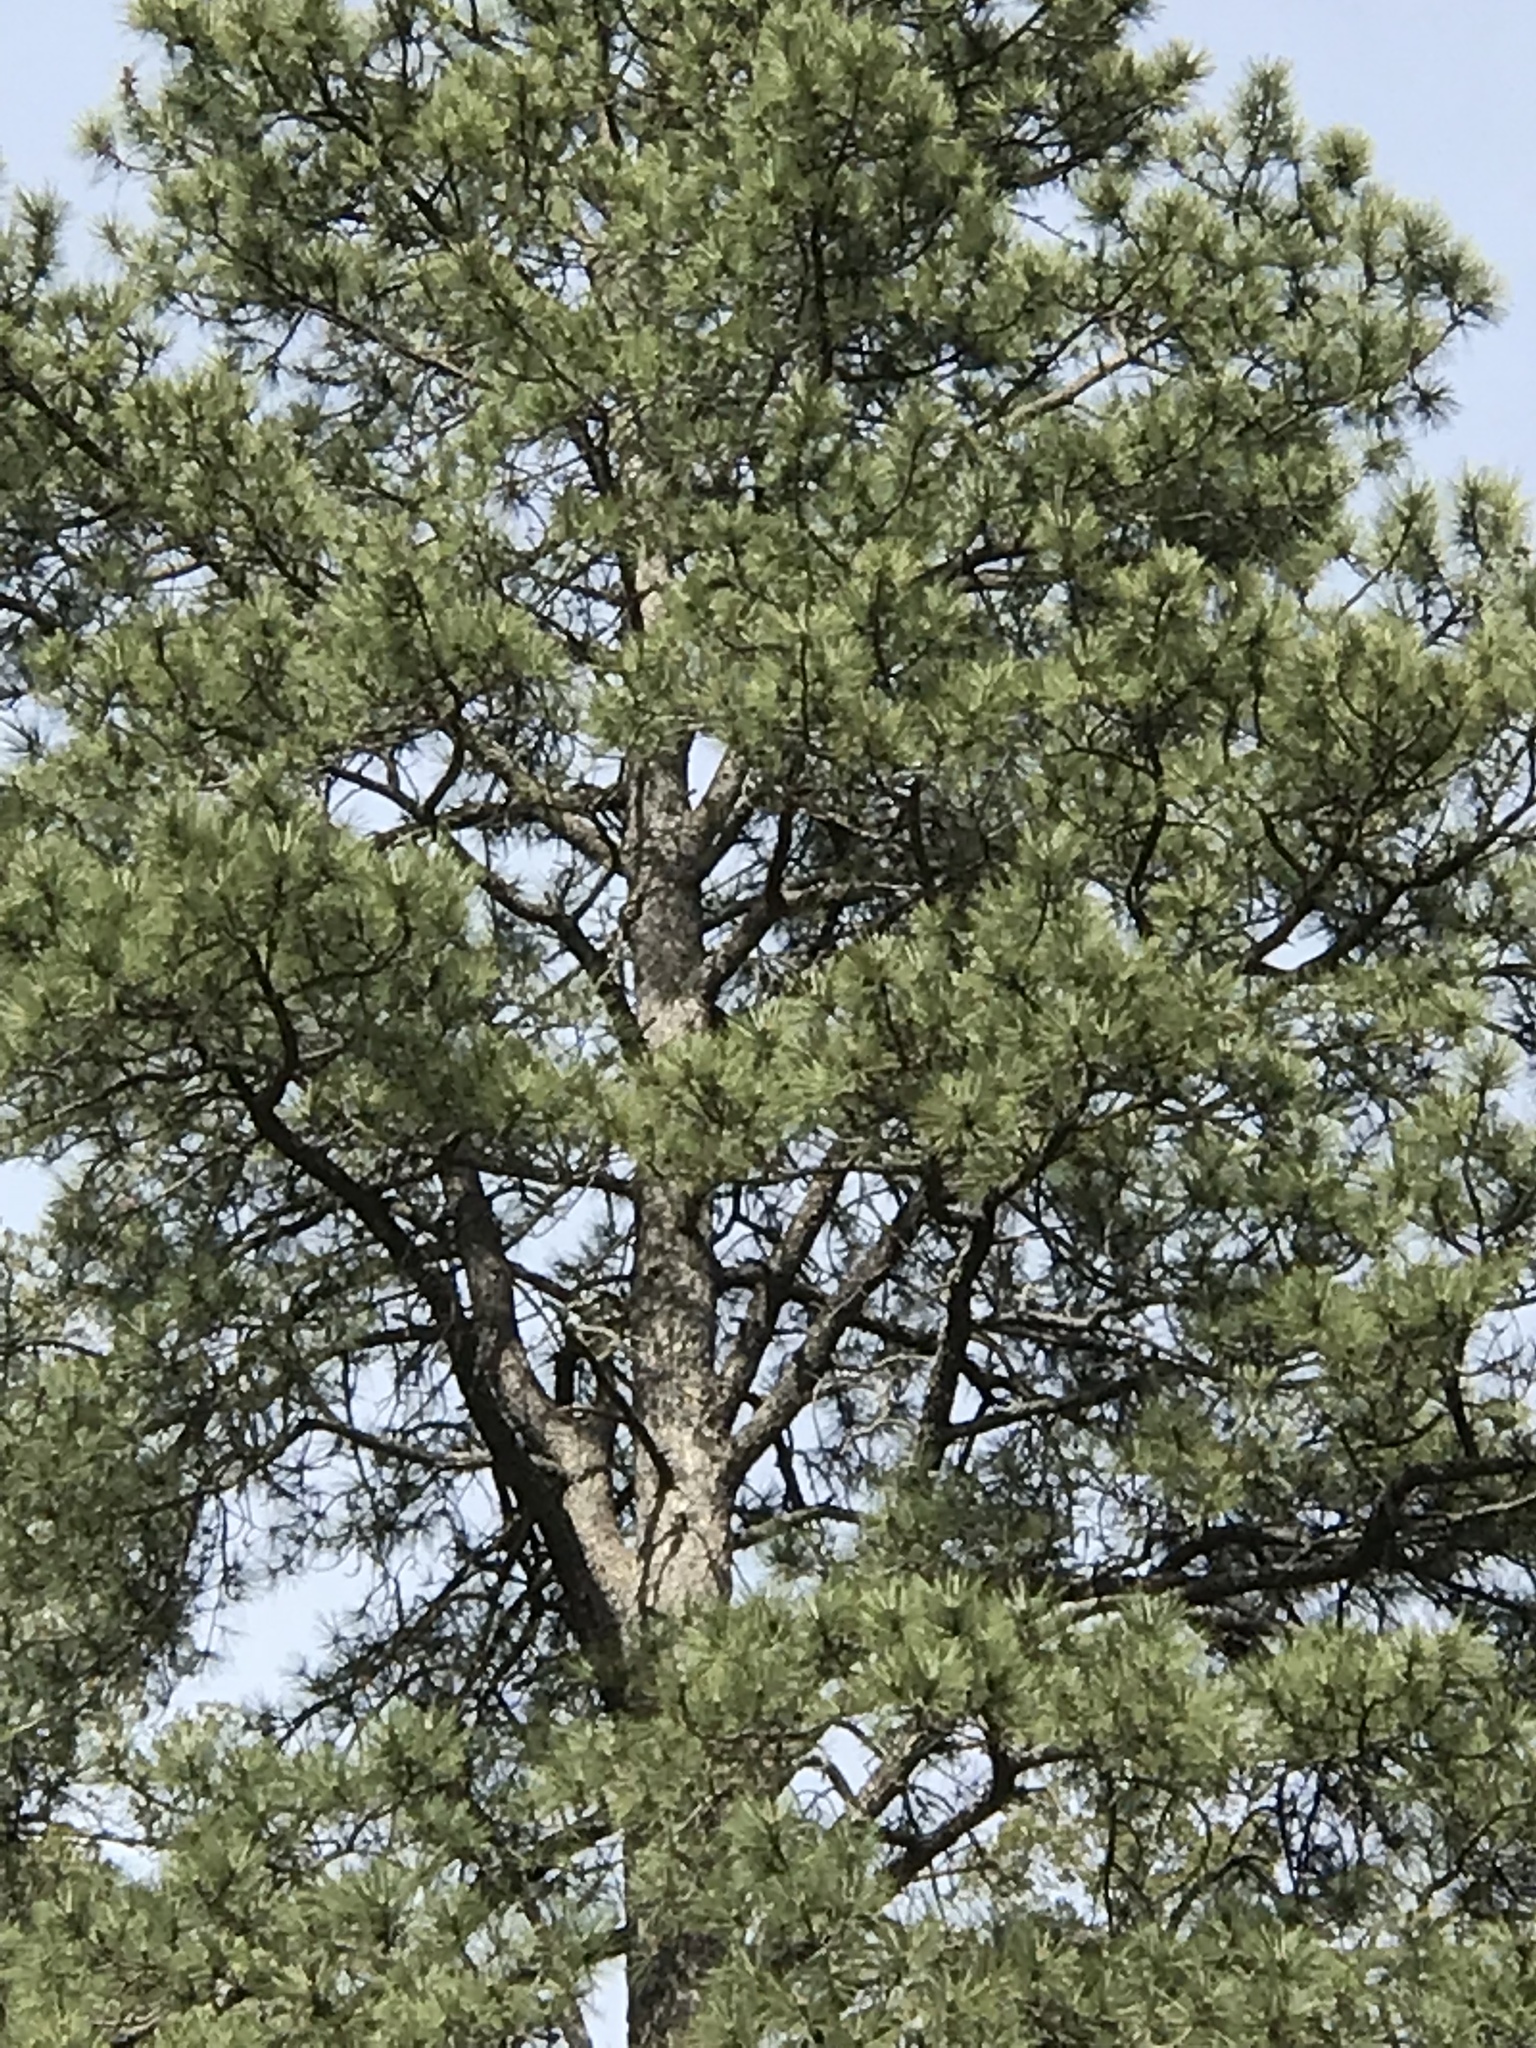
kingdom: Plantae
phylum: Tracheophyta
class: Pinopsida
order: Pinales
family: Pinaceae
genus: Pinus
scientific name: Pinus ponderosa
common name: Western yellow-pine
